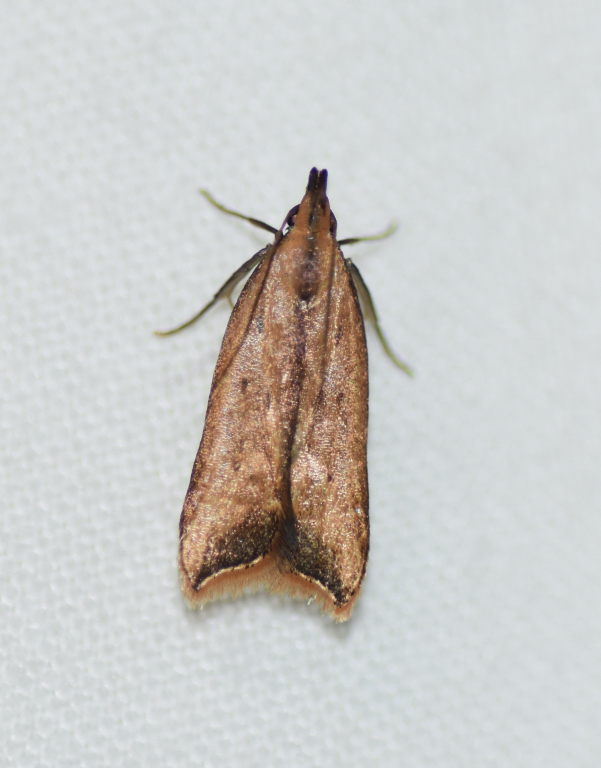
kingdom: Animalia
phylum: Arthropoda
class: Insecta
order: Lepidoptera
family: Gelechiidae
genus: Dichomeris
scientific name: Dichomeris heriguronis
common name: Black-edged dichomeris moth
